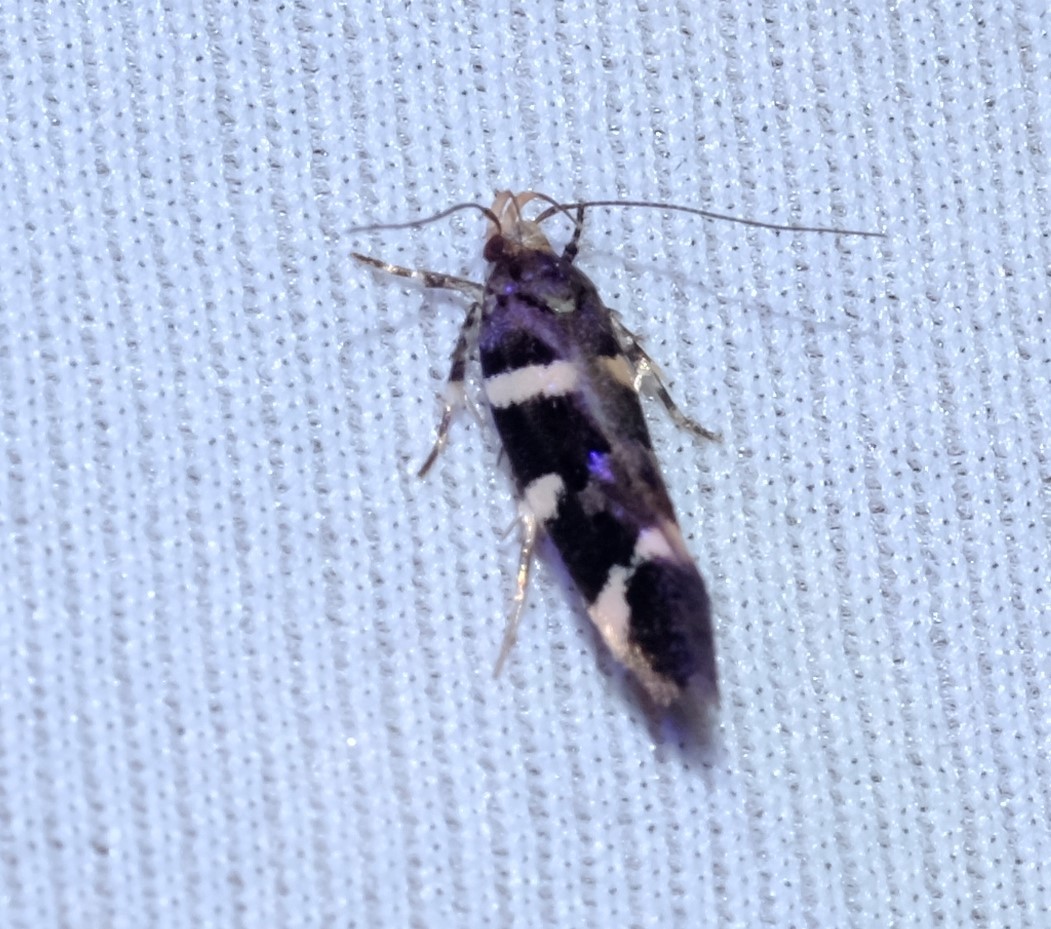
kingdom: Animalia
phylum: Arthropoda
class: Insecta
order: Lepidoptera
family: Cosmopterigidae
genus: Macrobathra
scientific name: Macrobathra ceraunobola
